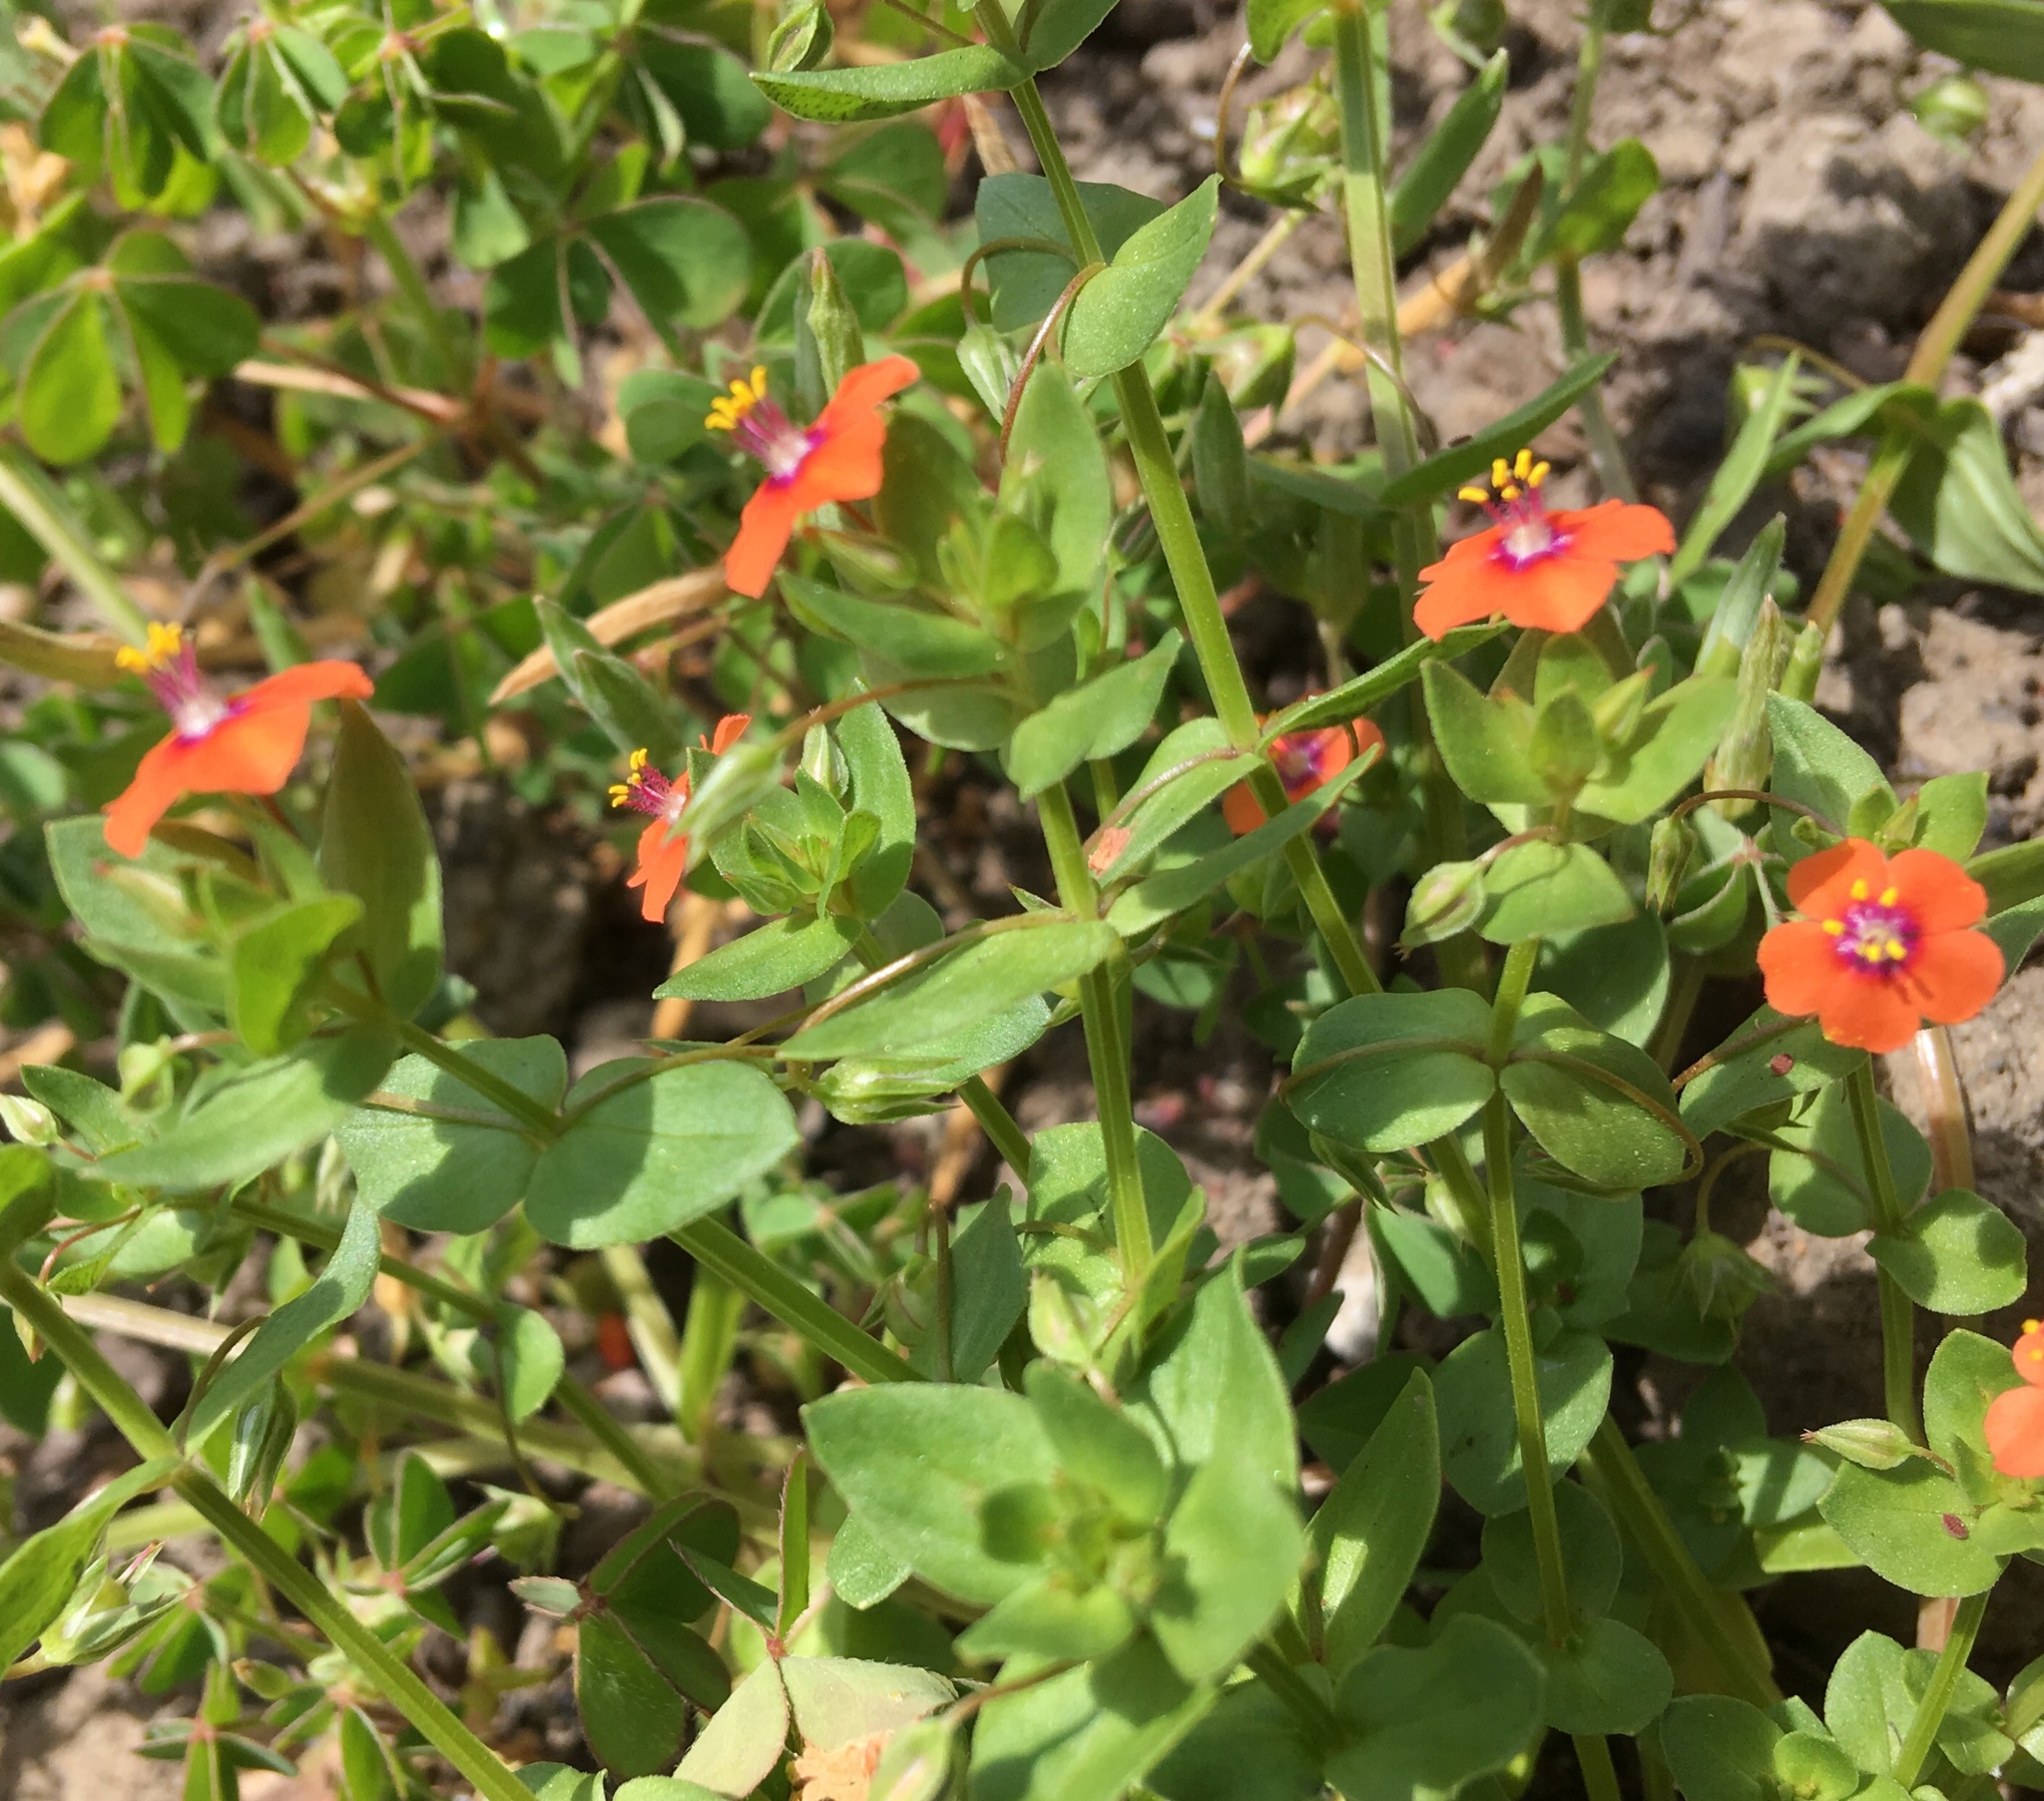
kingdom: Plantae
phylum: Tracheophyta
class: Magnoliopsida
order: Ericales
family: Primulaceae
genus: Lysimachia
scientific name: Lysimachia arvensis
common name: Scarlet pimpernel
